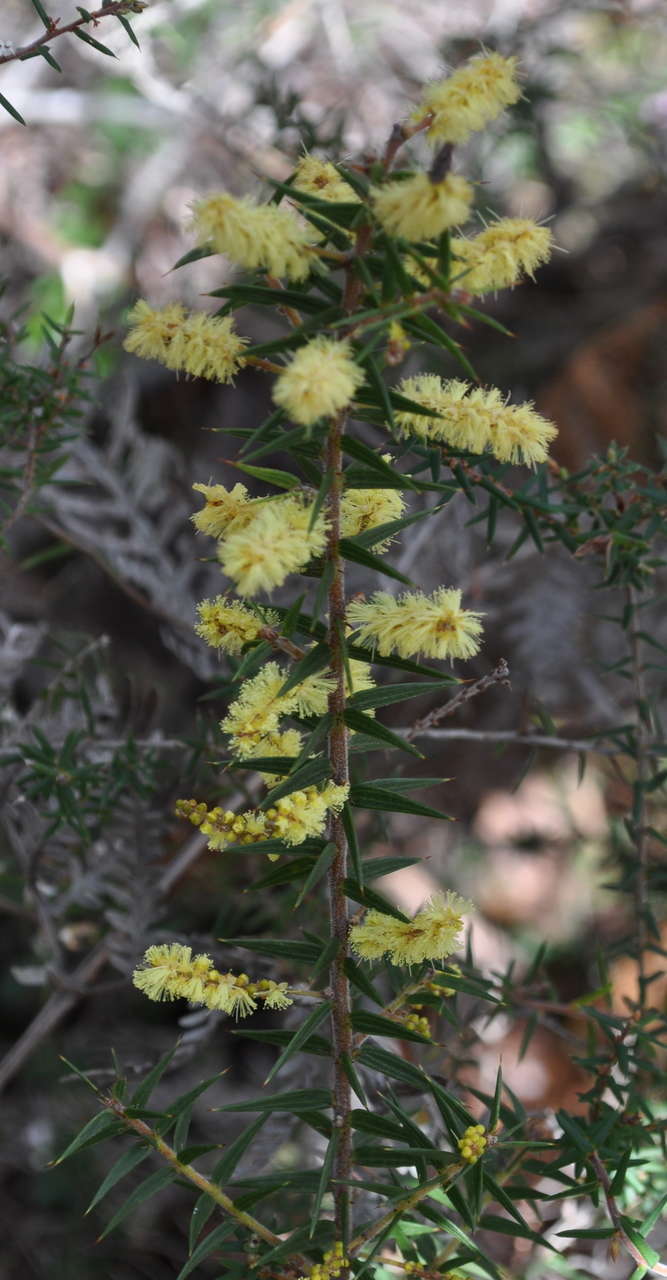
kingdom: Plantae
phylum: Tracheophyta
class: Magnoliopsida
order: Fabales
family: Fabaceae
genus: Acacia
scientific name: Acacia oxycedrus
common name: Spike wattle
